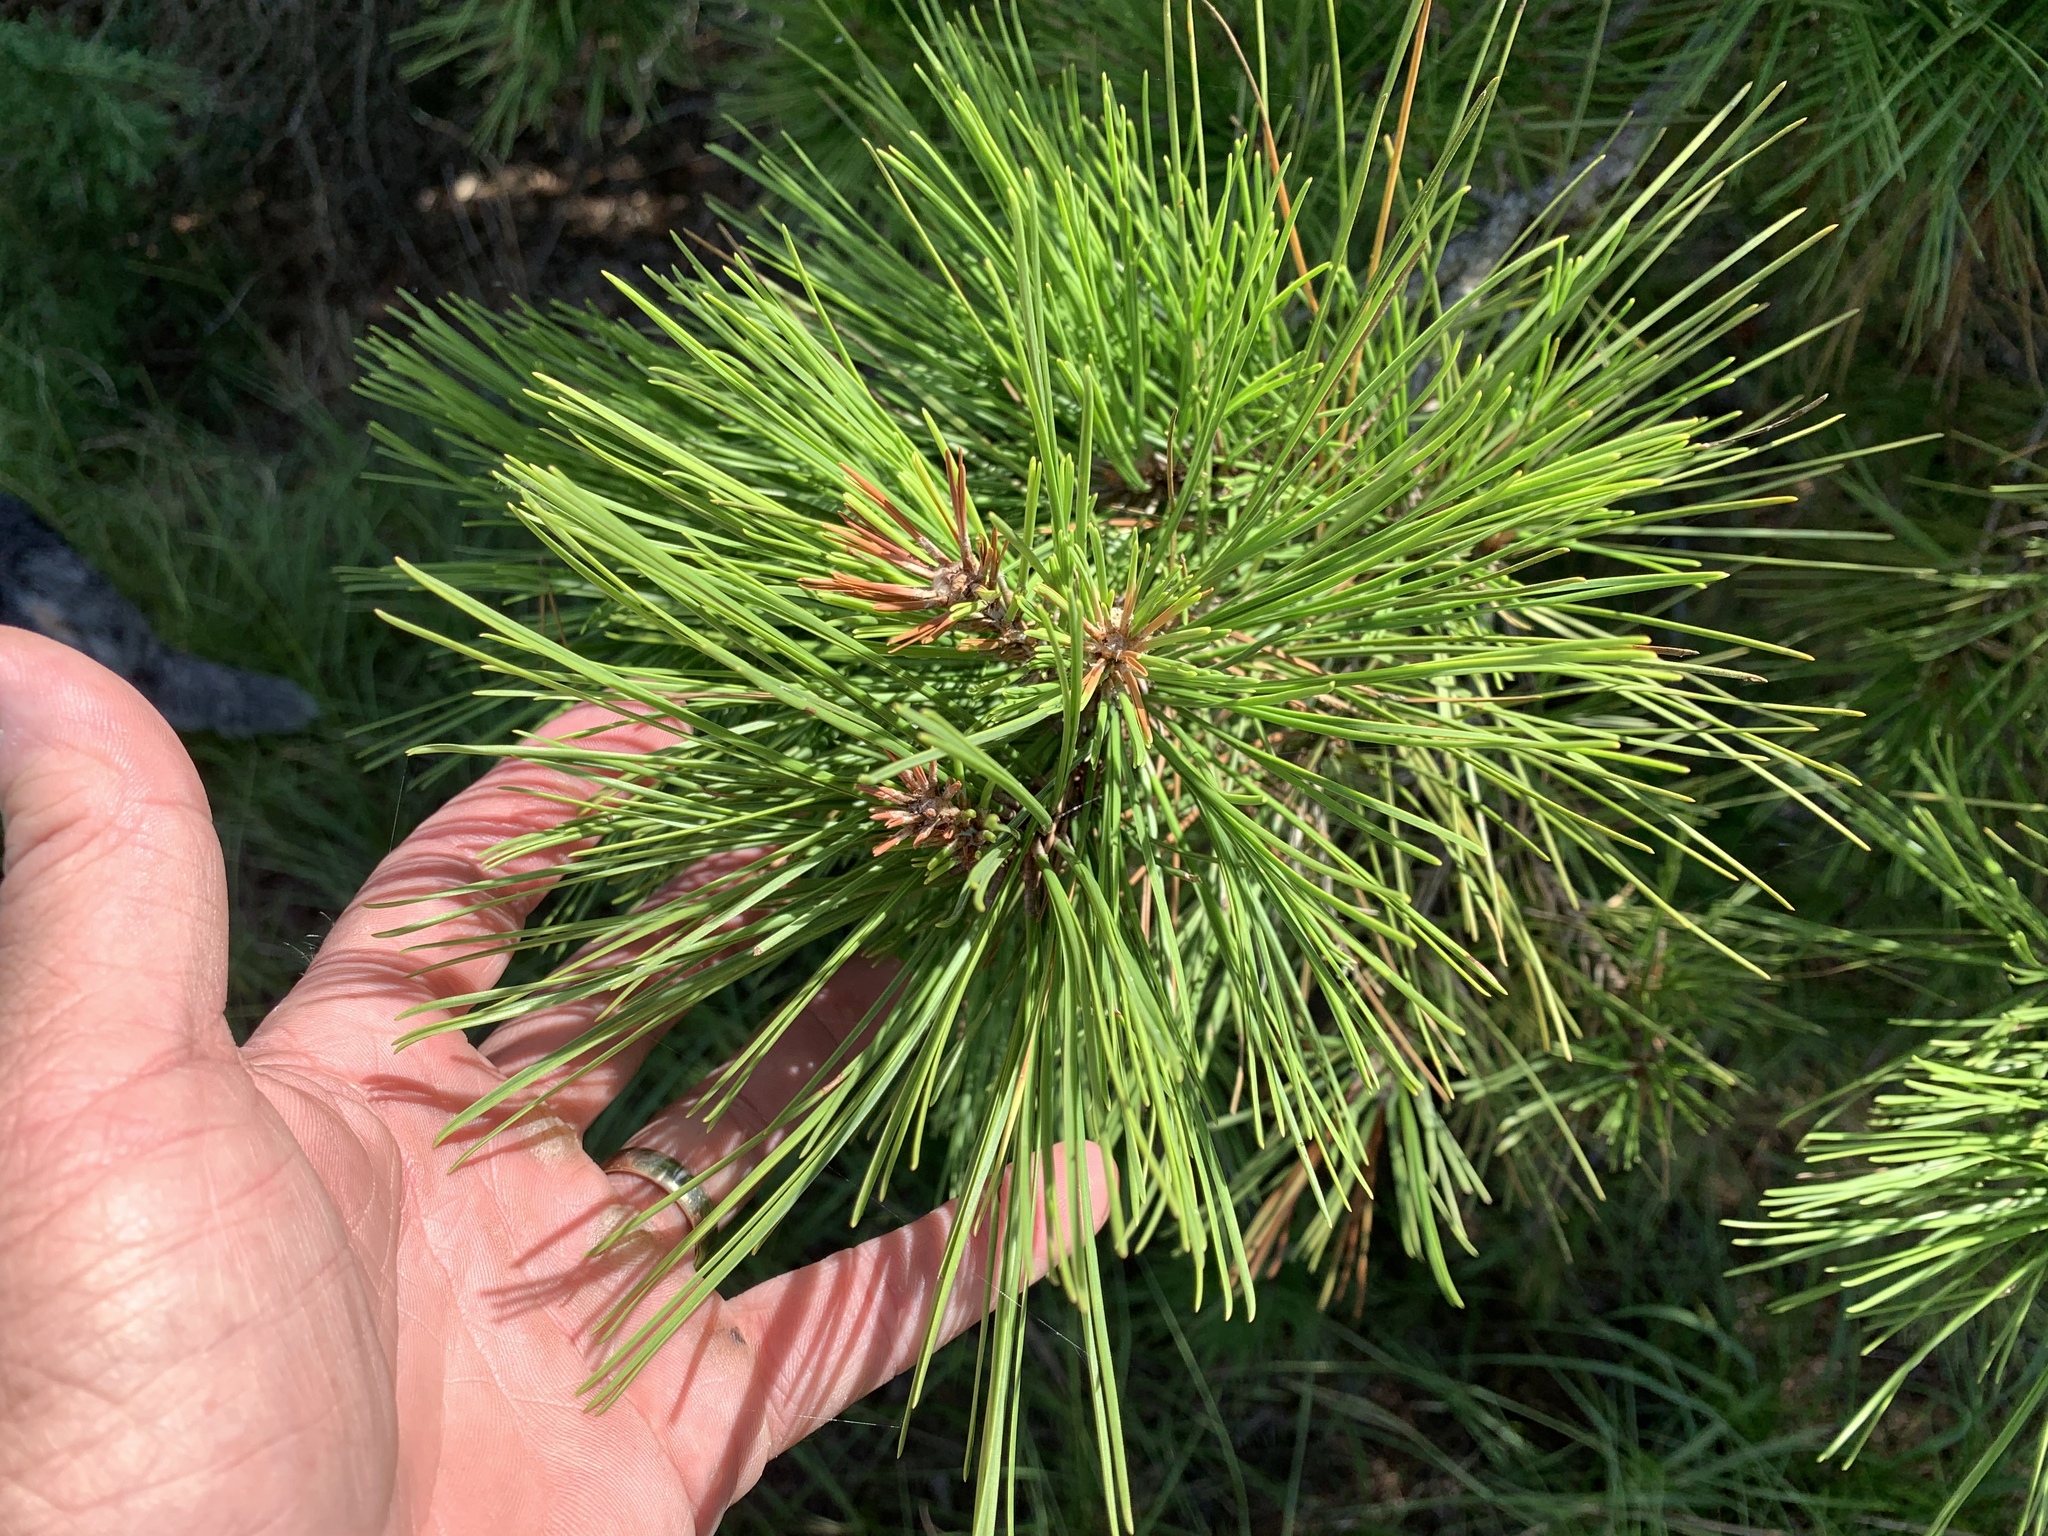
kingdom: Plantae
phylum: Tracheophyta
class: Pinopsida
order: Pinales
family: Pinaceae
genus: Pinus
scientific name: Pinus echinata
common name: Shortleaf pine
